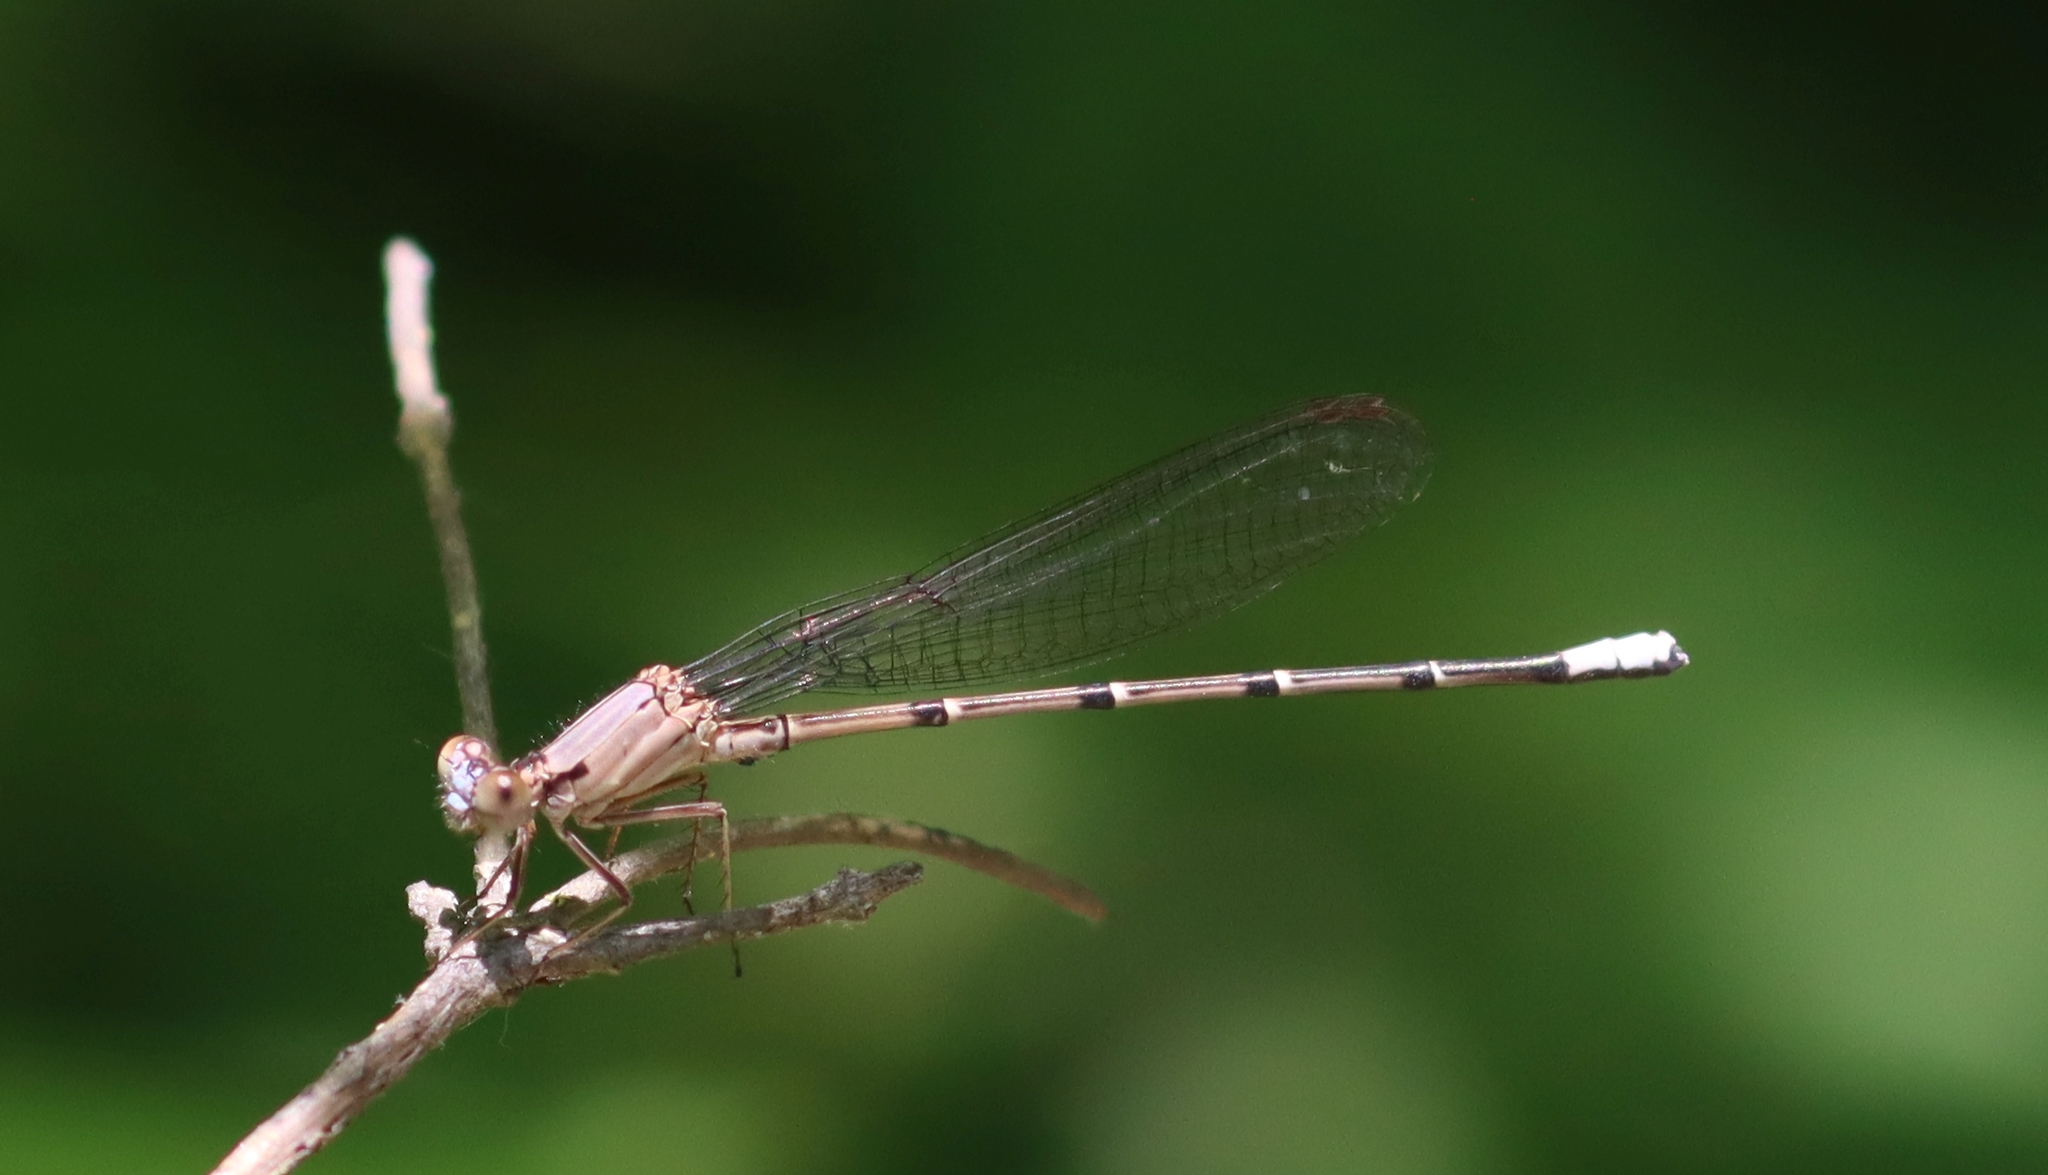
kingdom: Animalia
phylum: Arthropoda
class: Insecta
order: Odonata
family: Coenagrionidae
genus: Argia
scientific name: Argia apicalis
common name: Blue-fronted dancer
